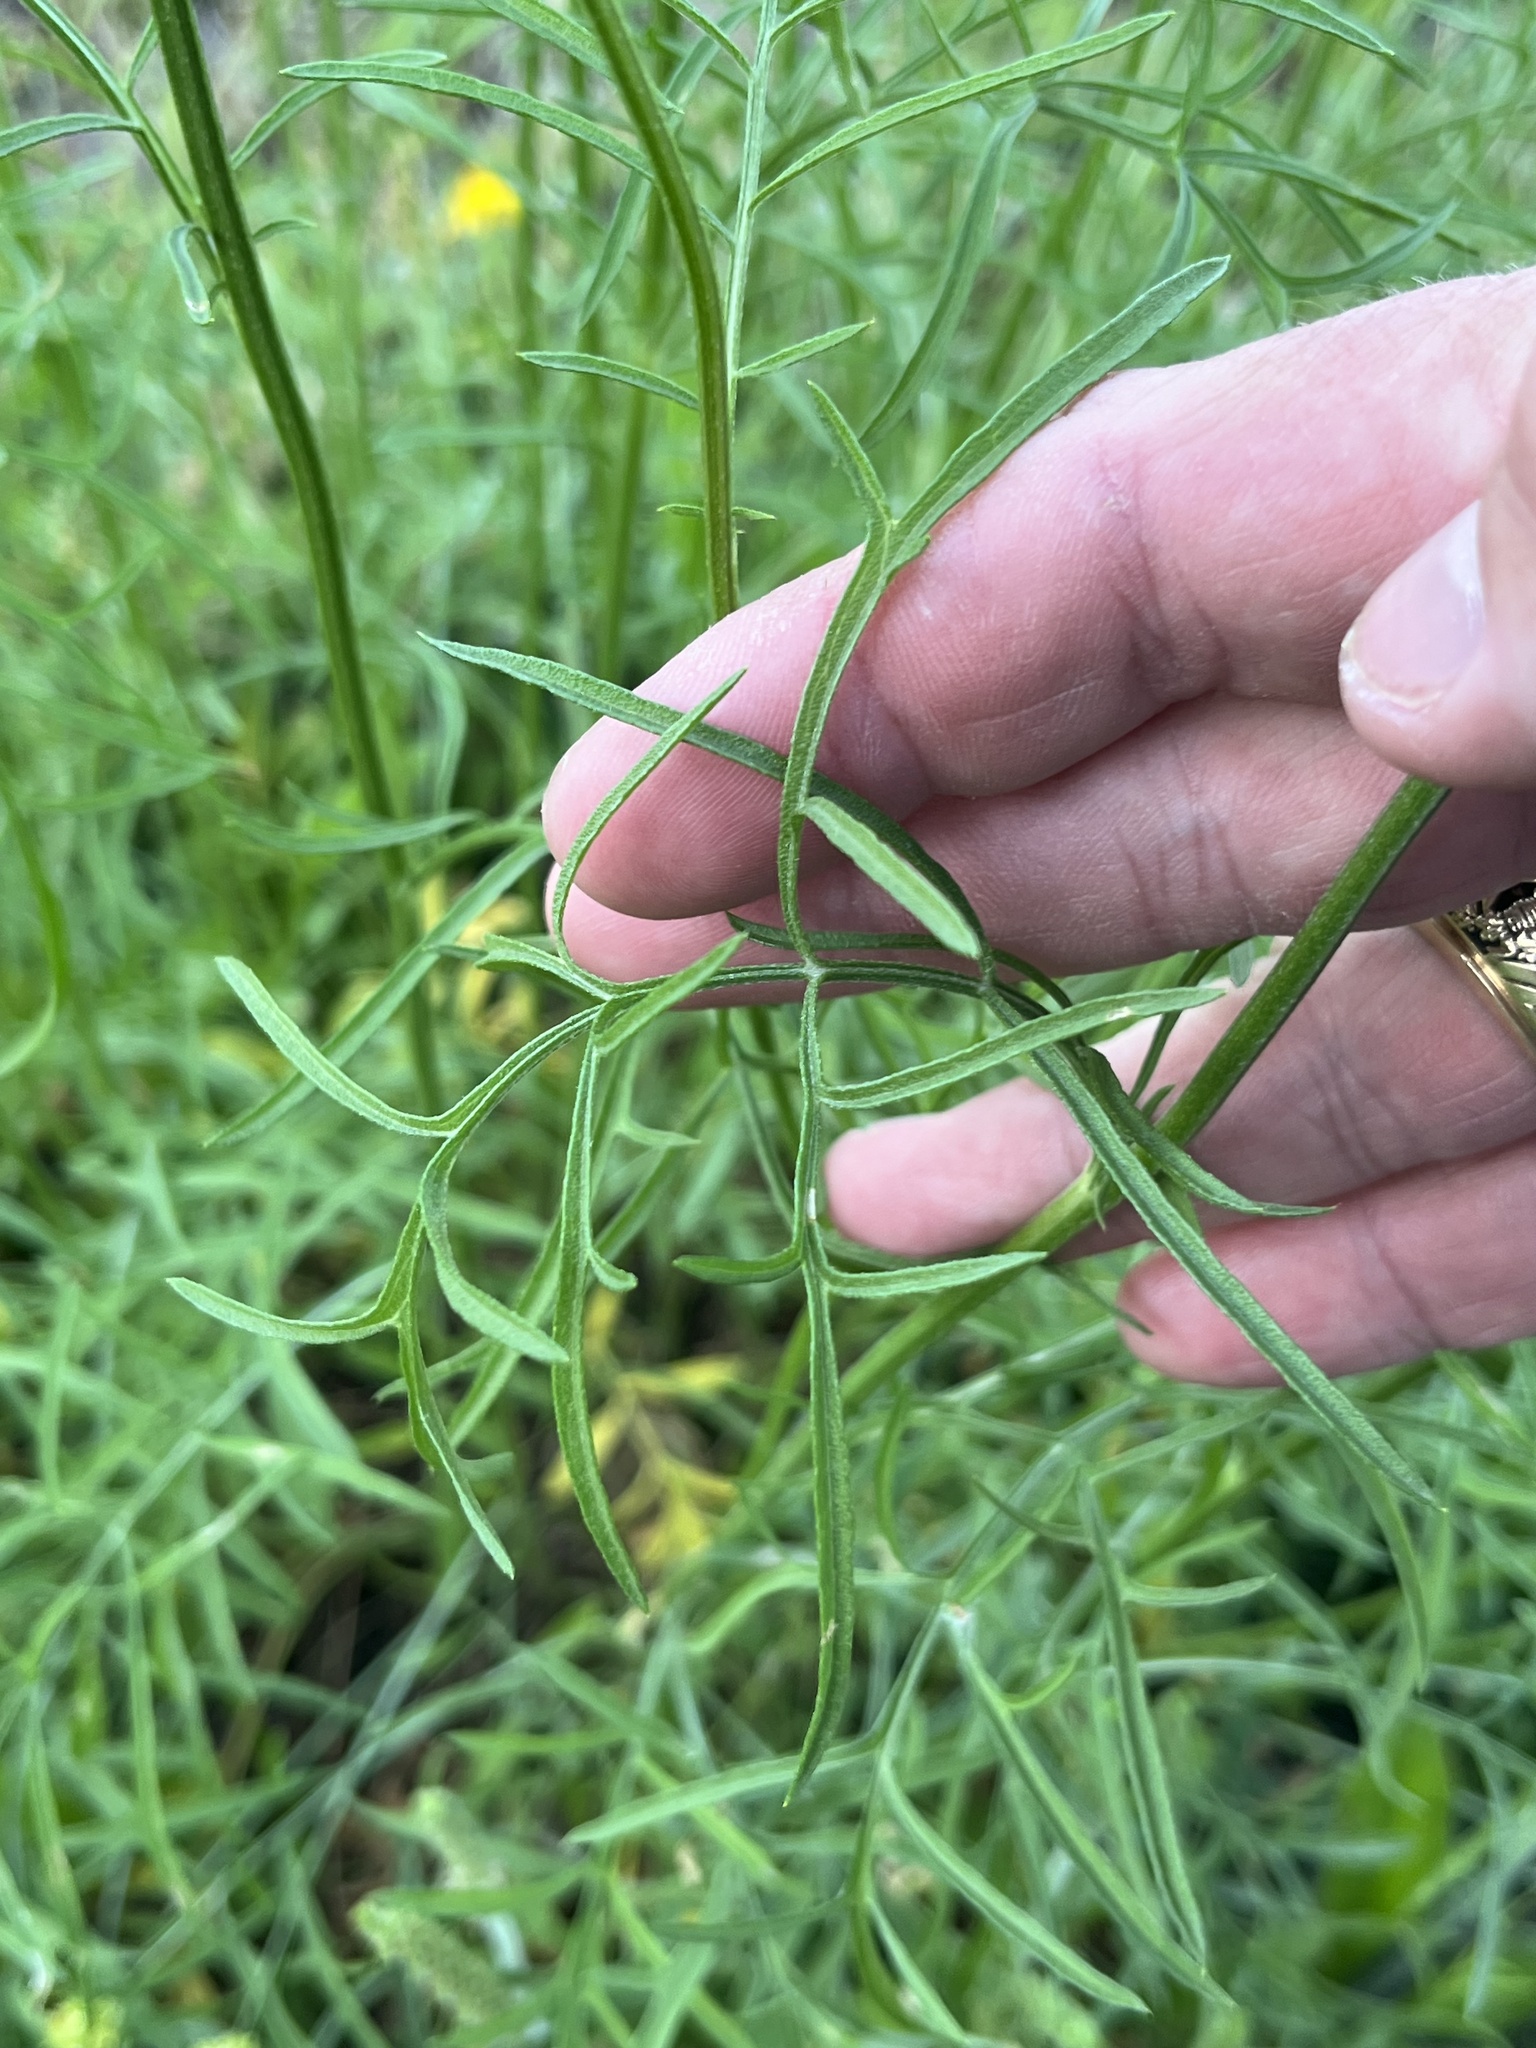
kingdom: Plantae
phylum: Tracheophyta
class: Magnoliopsida
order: Asterales
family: Asteraceae
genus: Ratibida
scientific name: Ratibida columnifera
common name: Prairie coneflower
